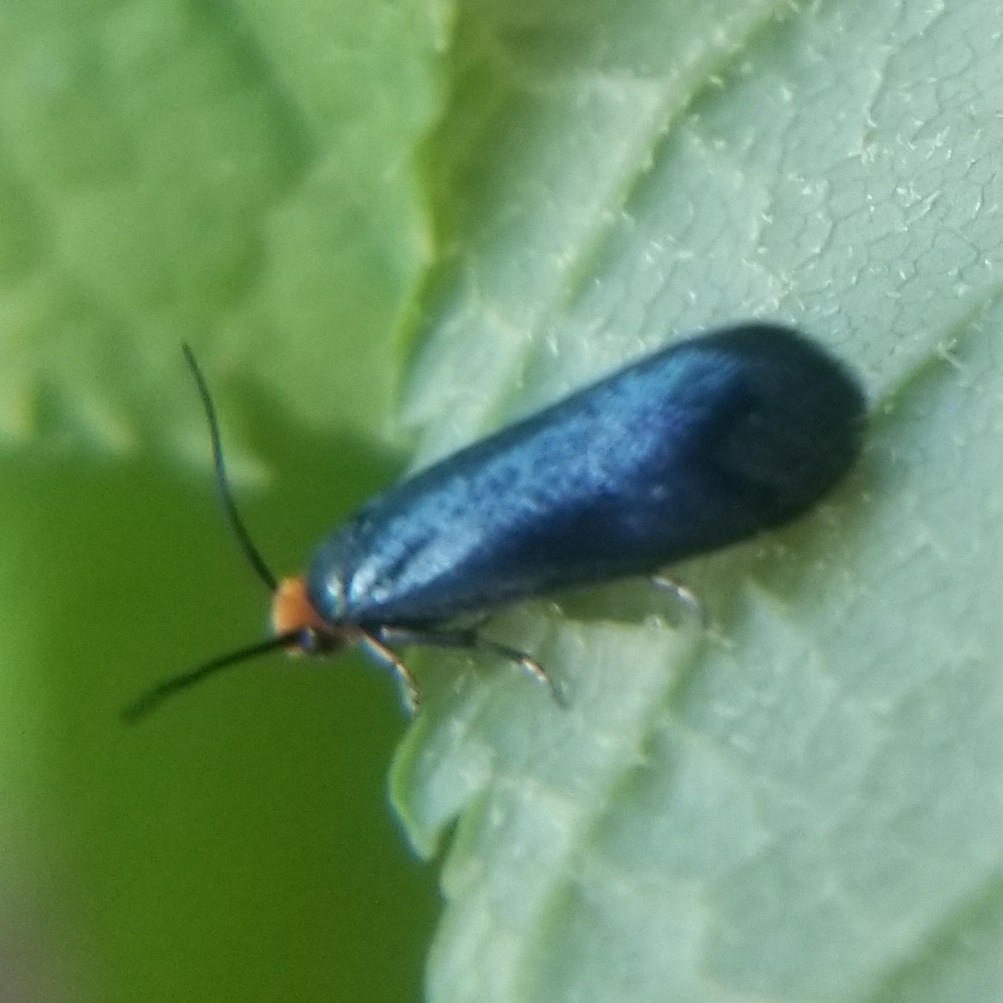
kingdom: Animalia
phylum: Arthropoda
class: Insecta
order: Lepidoptera
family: Incurvariidae
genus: Paraclemensia
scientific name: Paraclemensia acerifoliella
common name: Maple leafcutter
